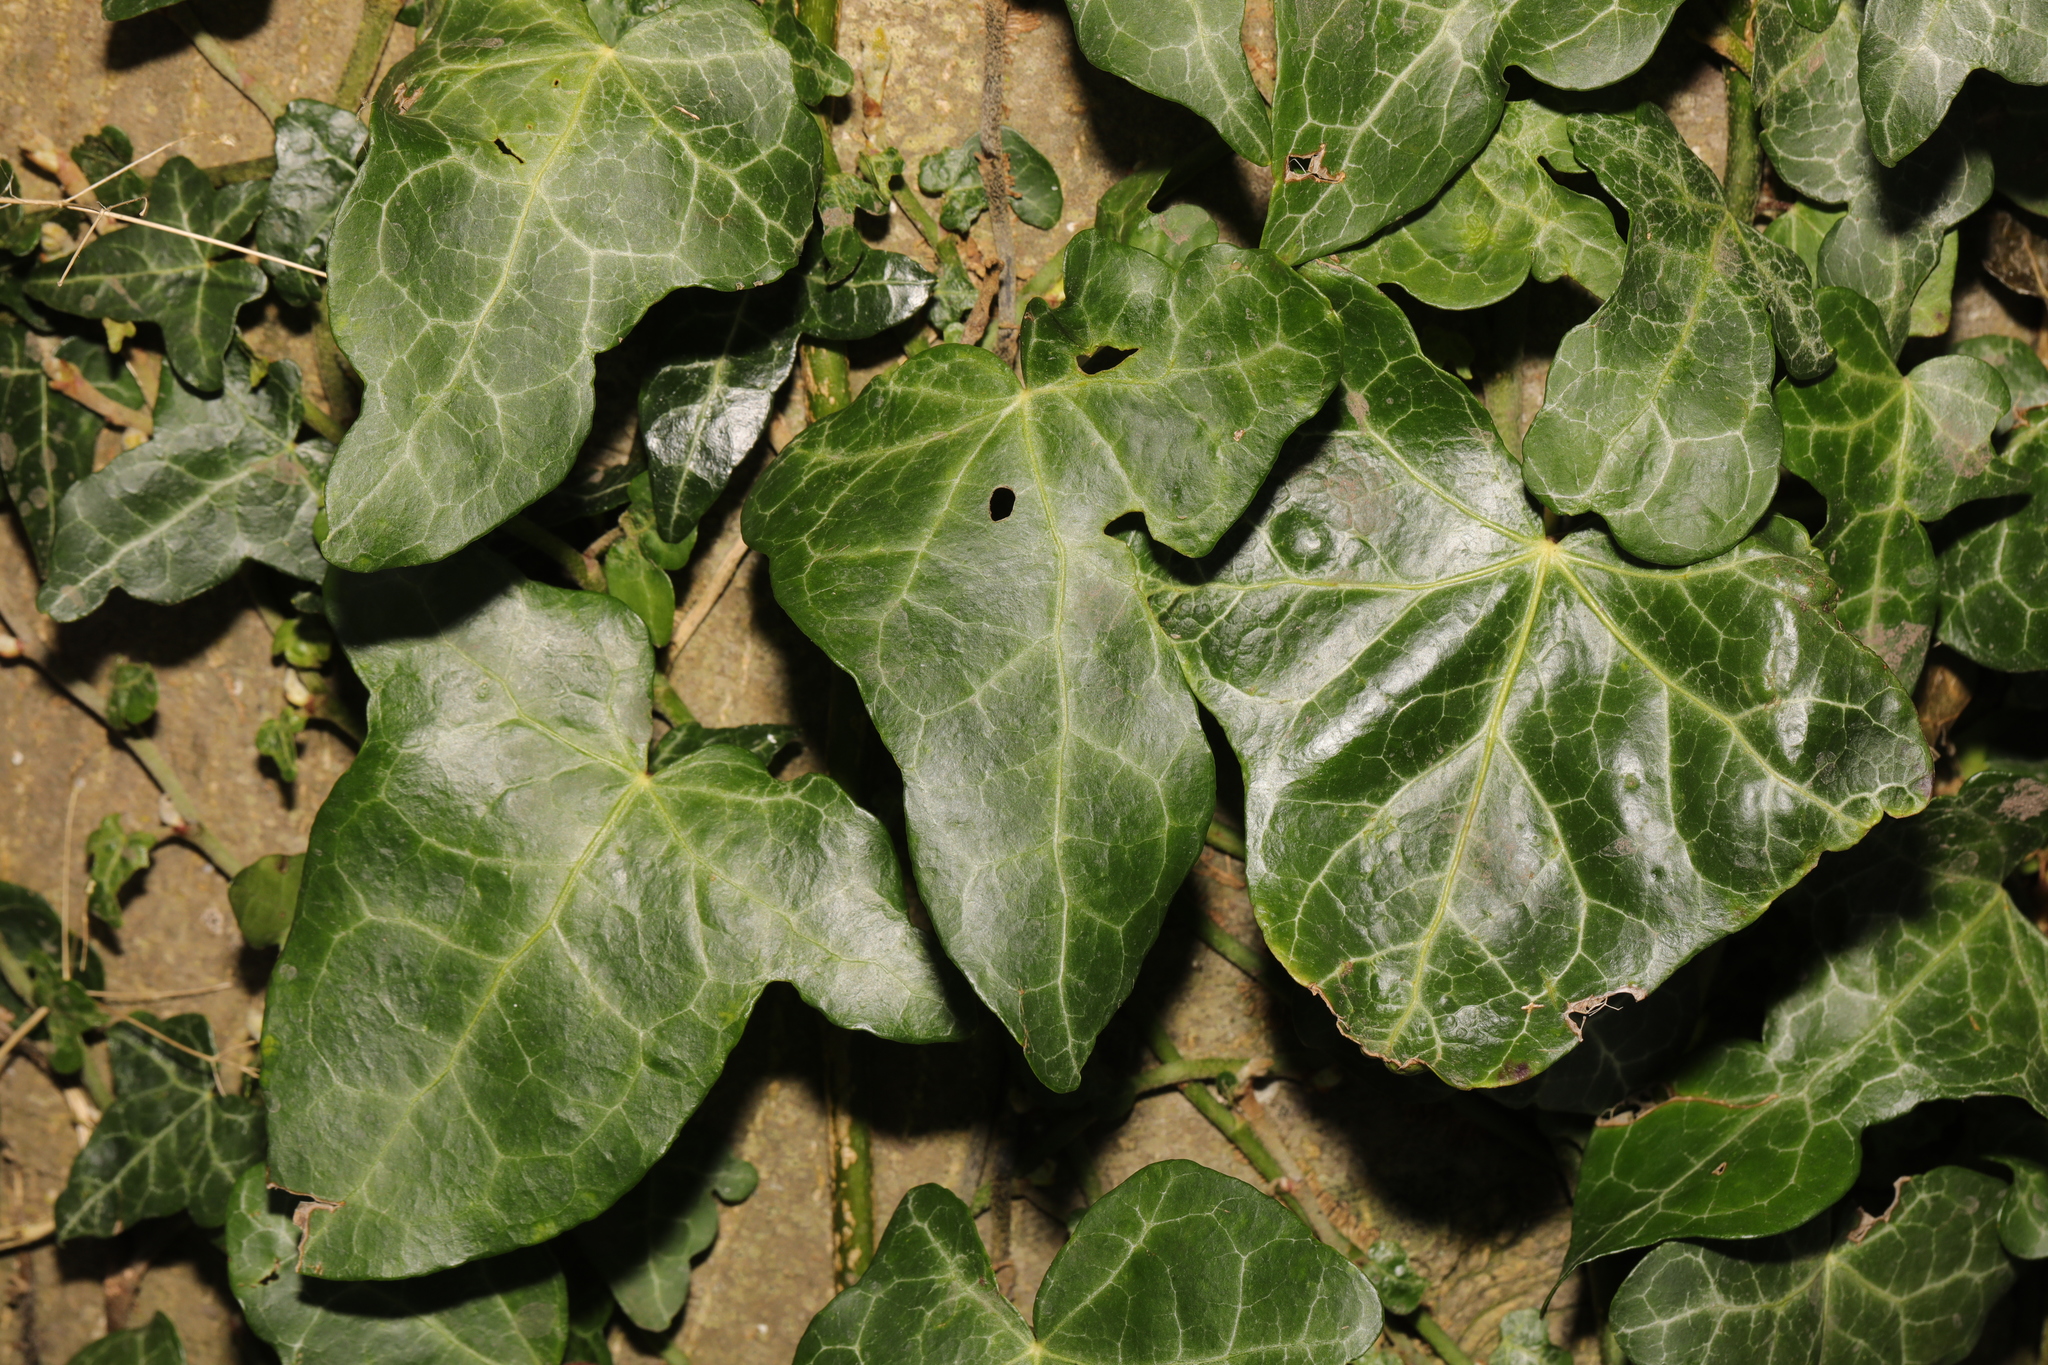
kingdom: Plantae
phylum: Tracheophyta
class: Magnoliopsida
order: Apiales
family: Araliaceae
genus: Hedera
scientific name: Hedera helix
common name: Ivy
